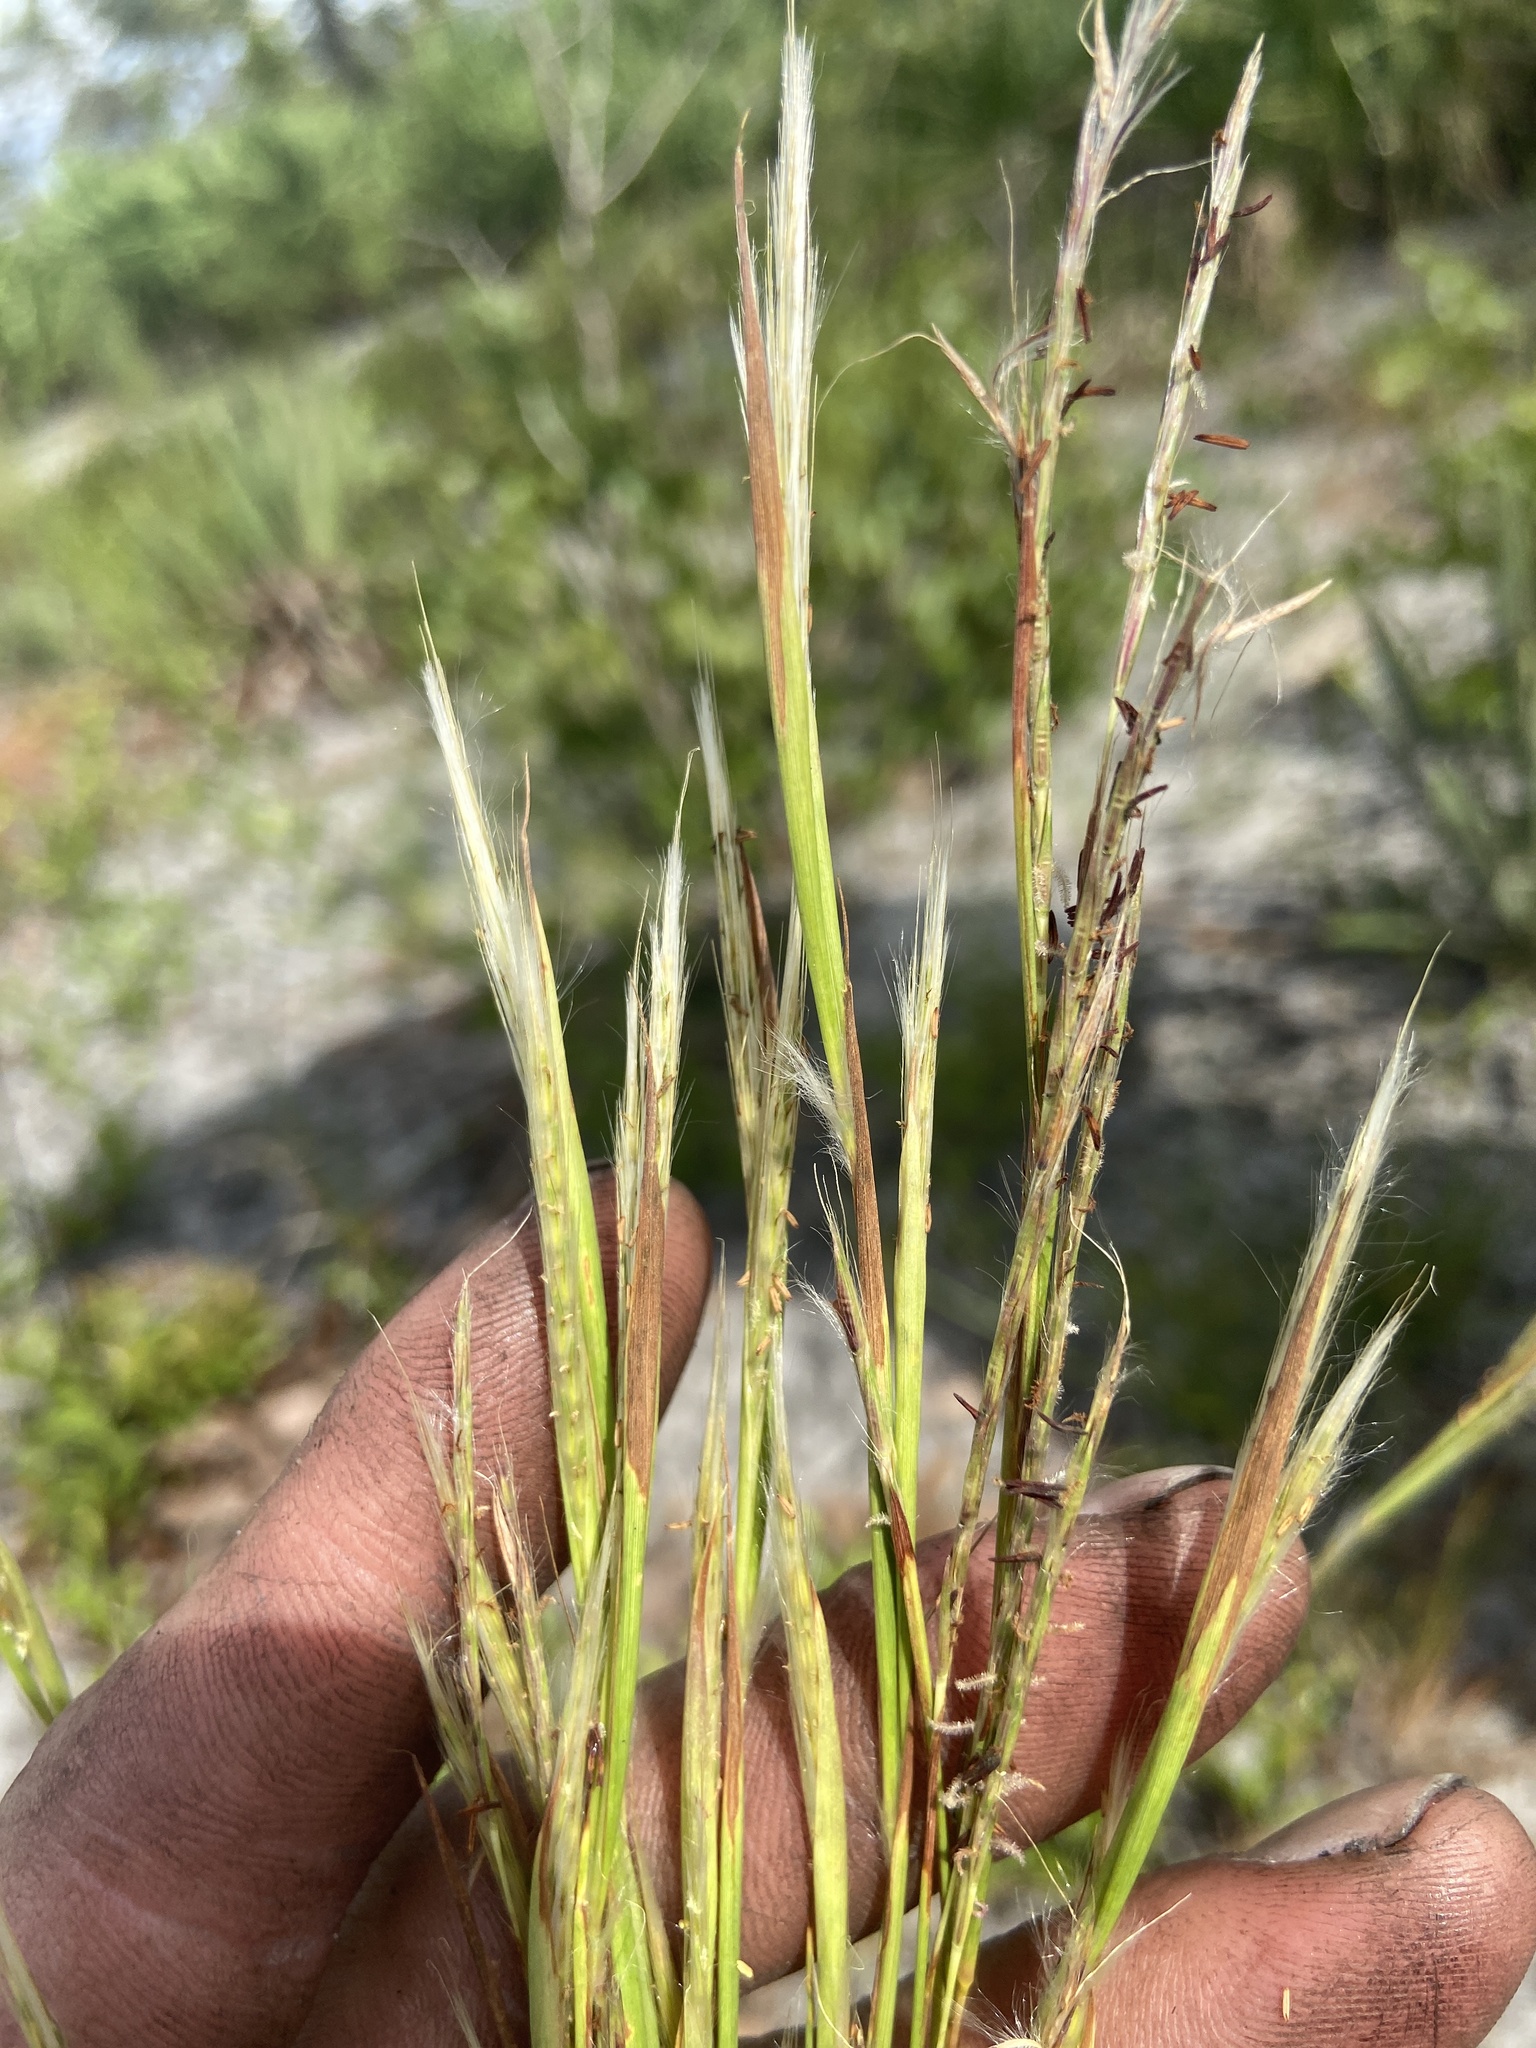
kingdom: Plantae
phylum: Tracheophyta
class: Liliopsida
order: Poales
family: Poaceae
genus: Andropogon
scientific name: Andropogon tracyi
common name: Tracy's bluestem
